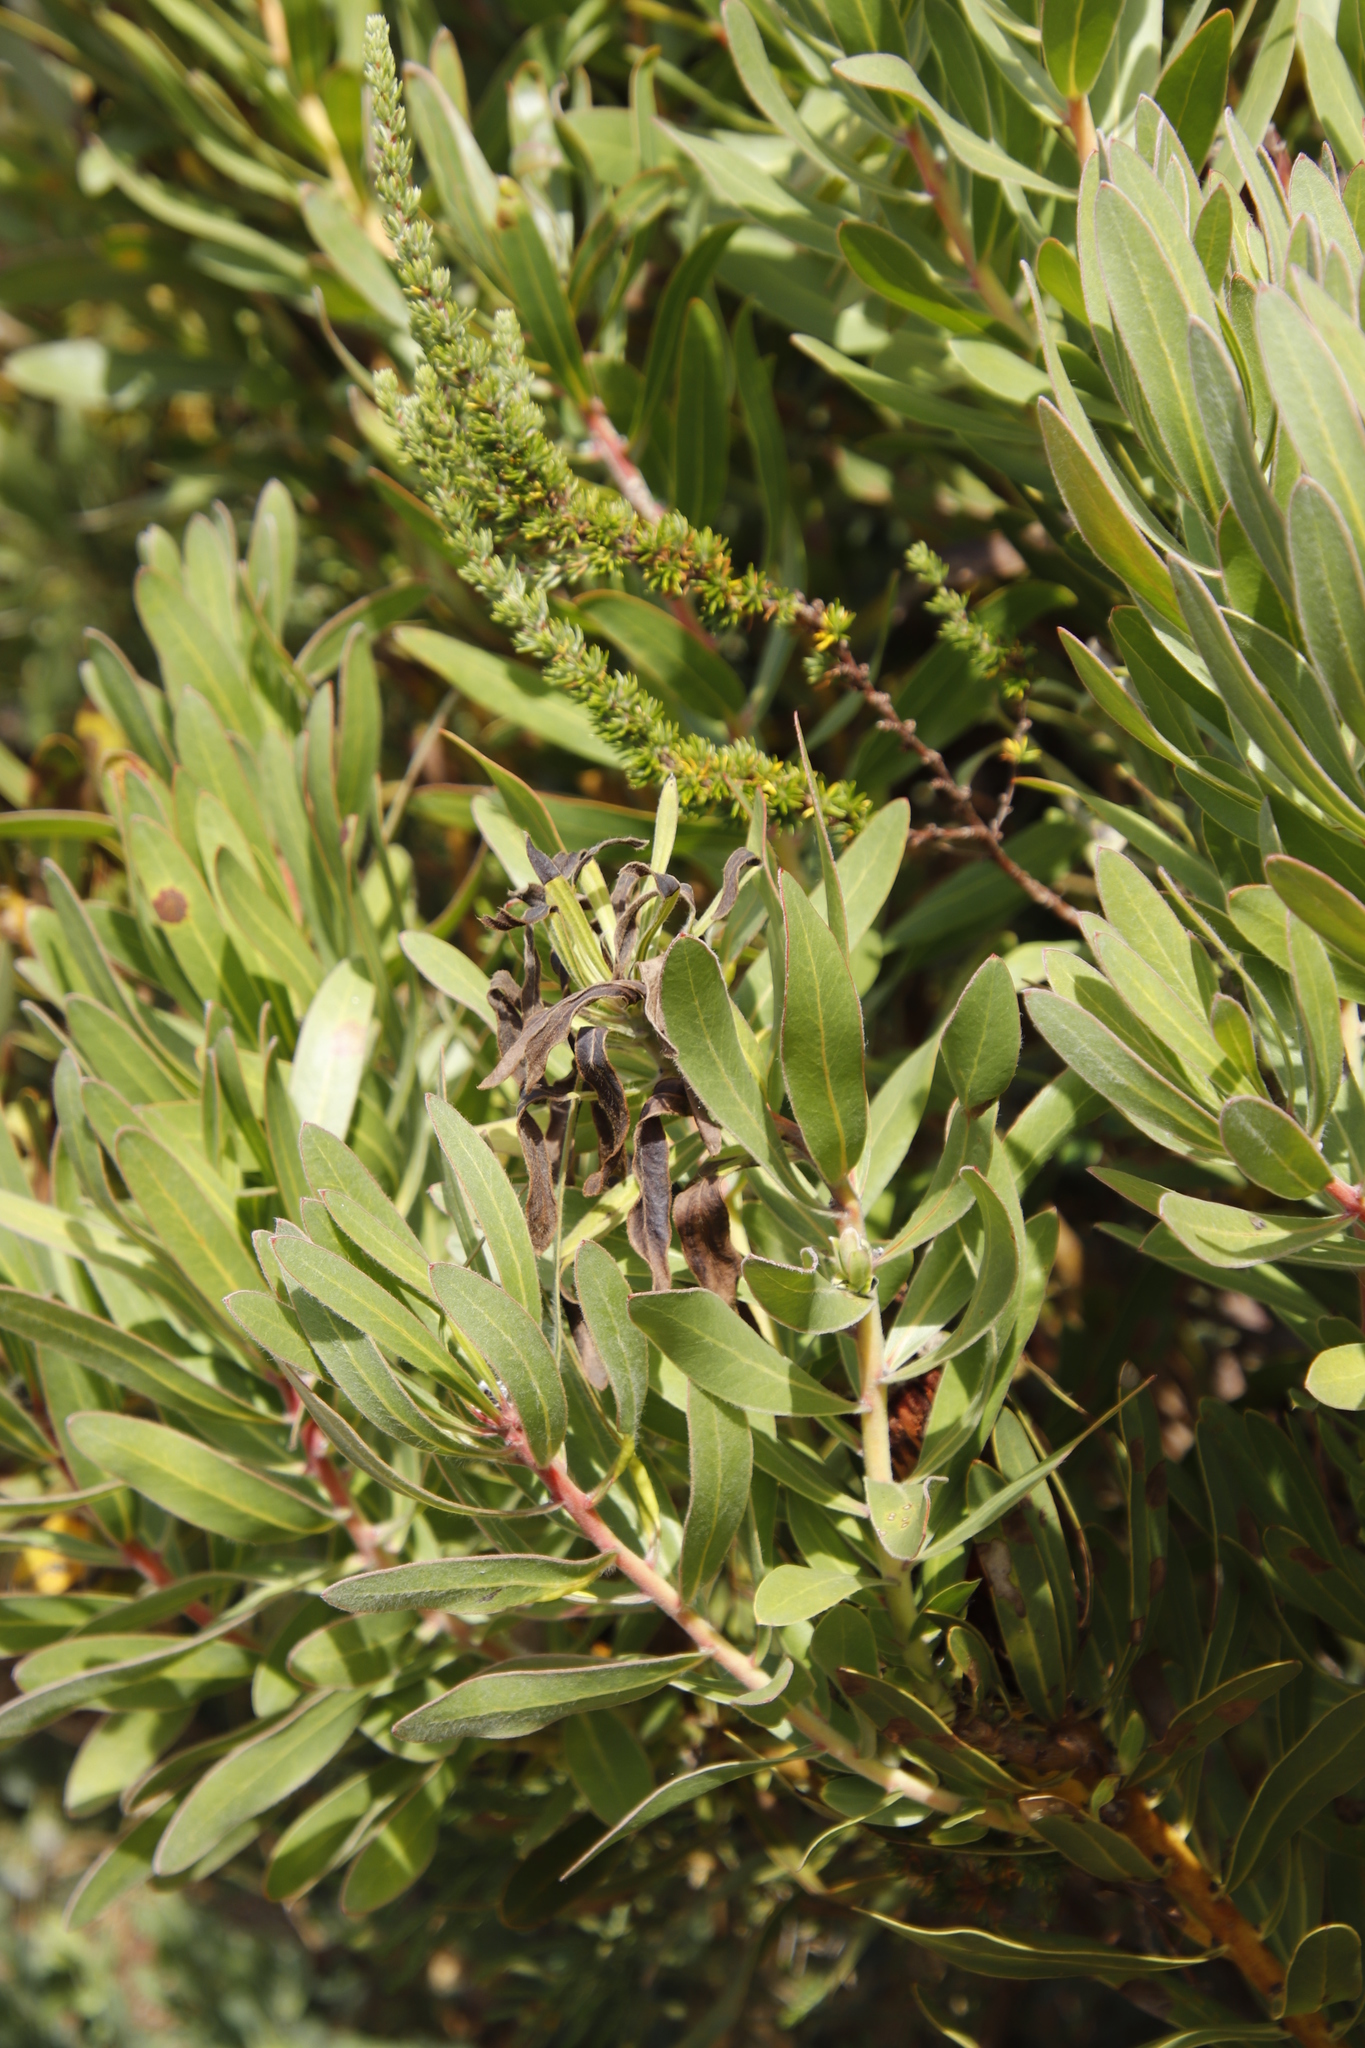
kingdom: Plantae
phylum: Tracheophyta
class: Magnoliopsida
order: Proteales
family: Proteaceae
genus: Protea
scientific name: Protea lepidocarpodendron
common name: Black-bearded protea
